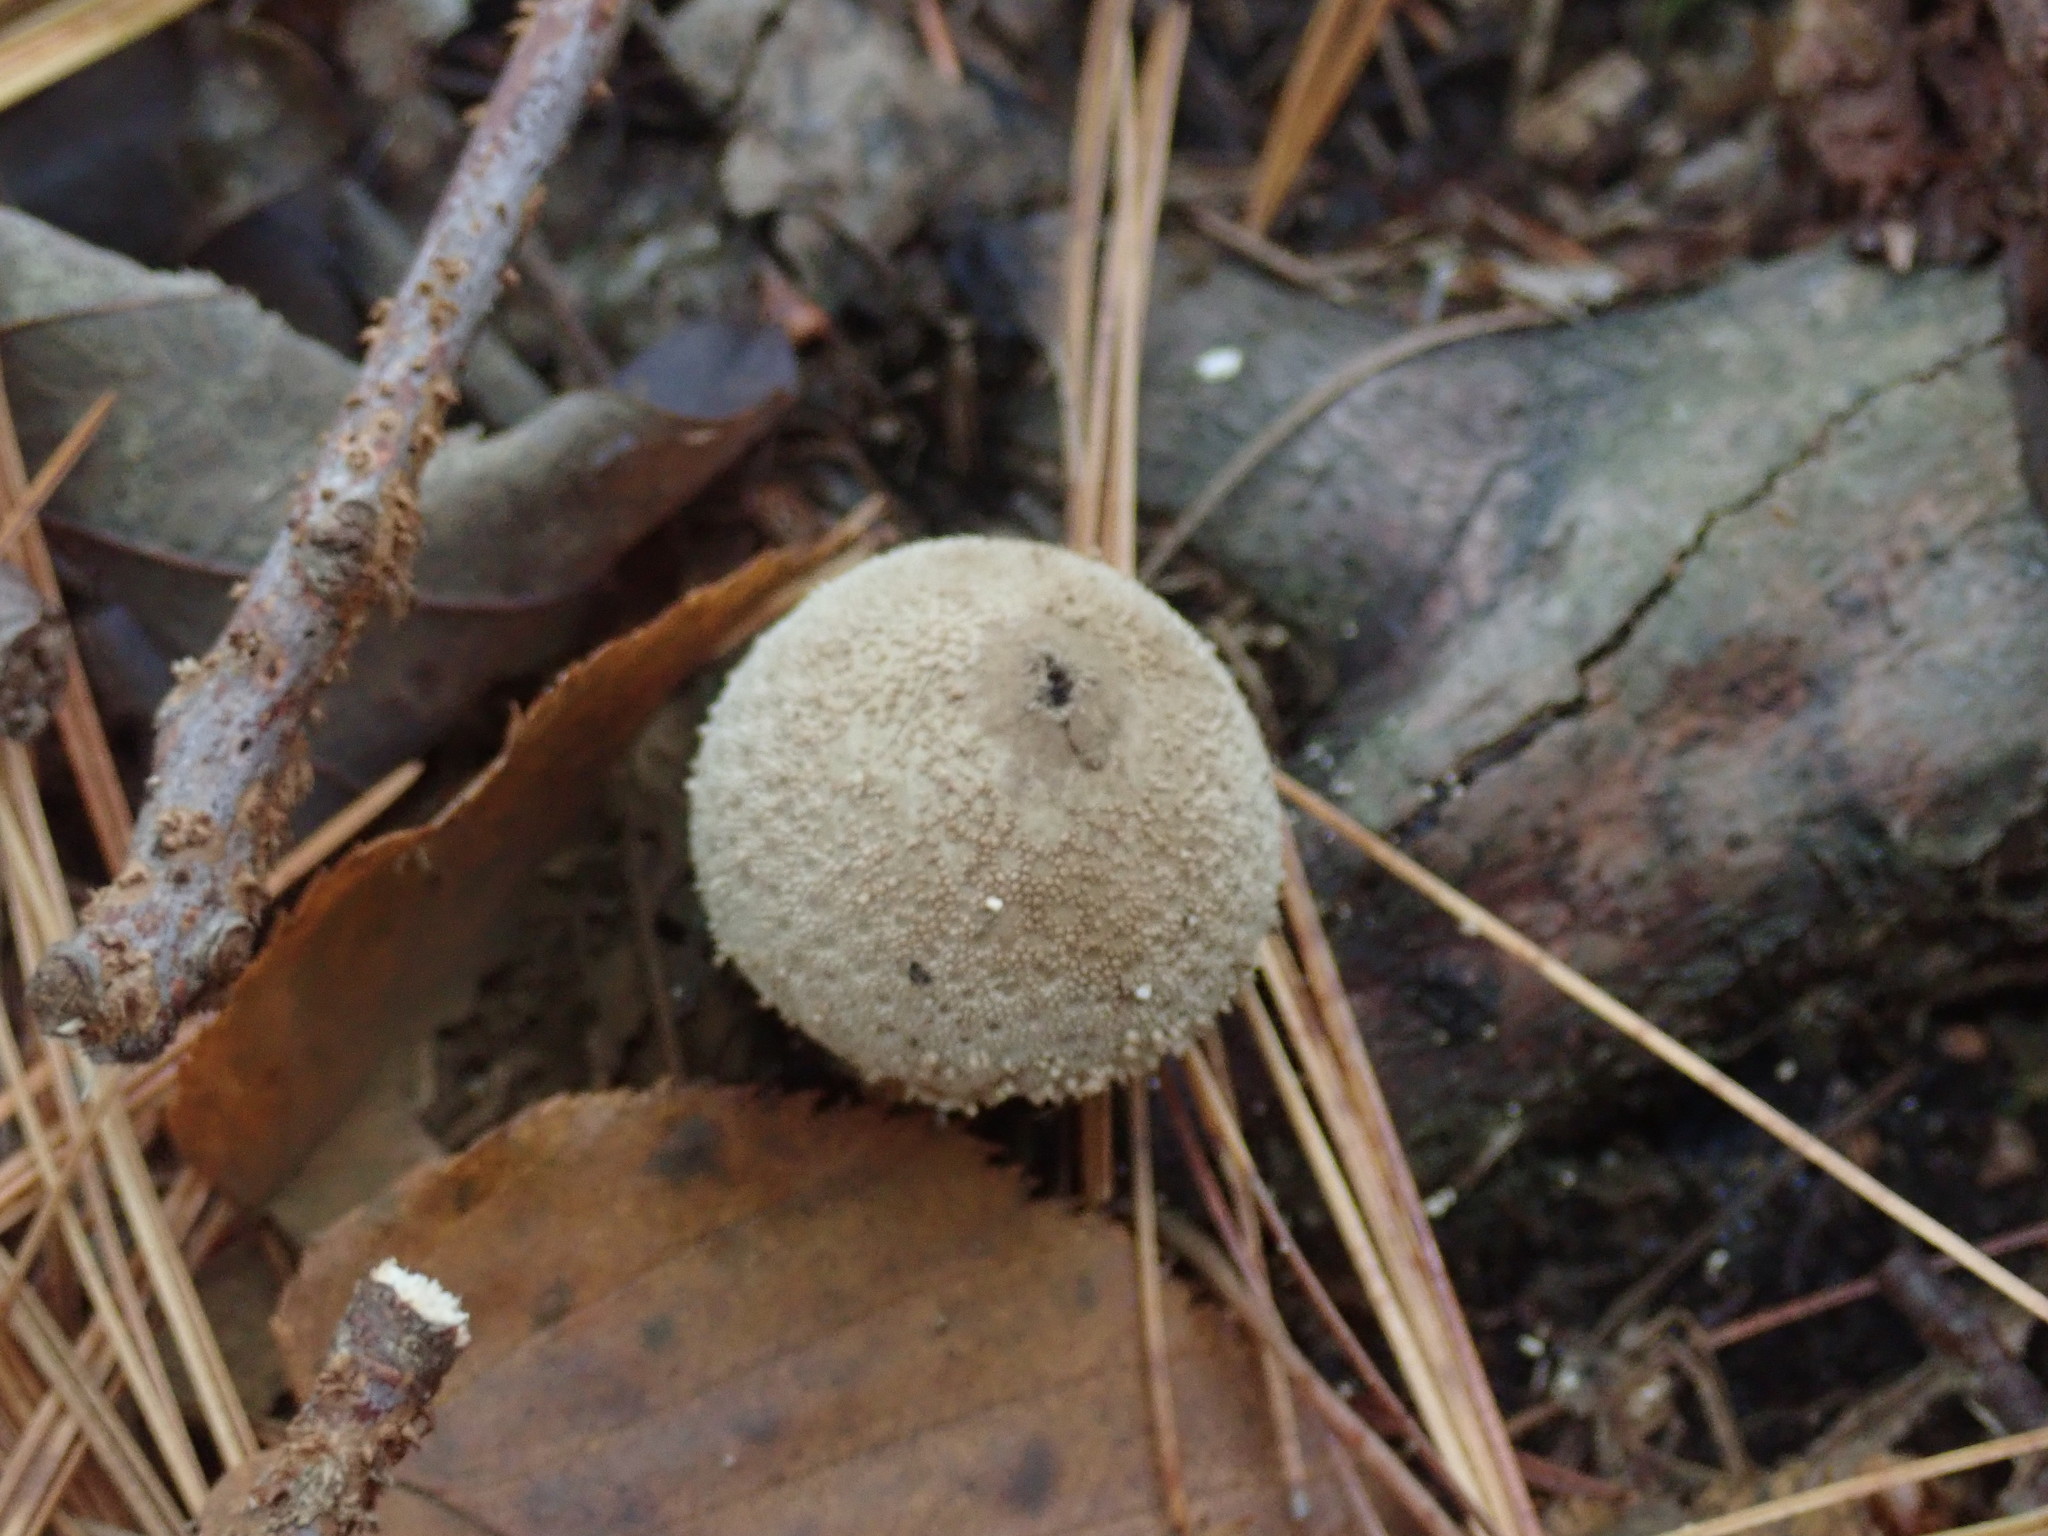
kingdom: Fungi
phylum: Basidiomycota
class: Agaricomycetes
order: Agaricales
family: Lycoperdaceae
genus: Lycoperdon
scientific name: Lycoperdon perlatum
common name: Common puffball
